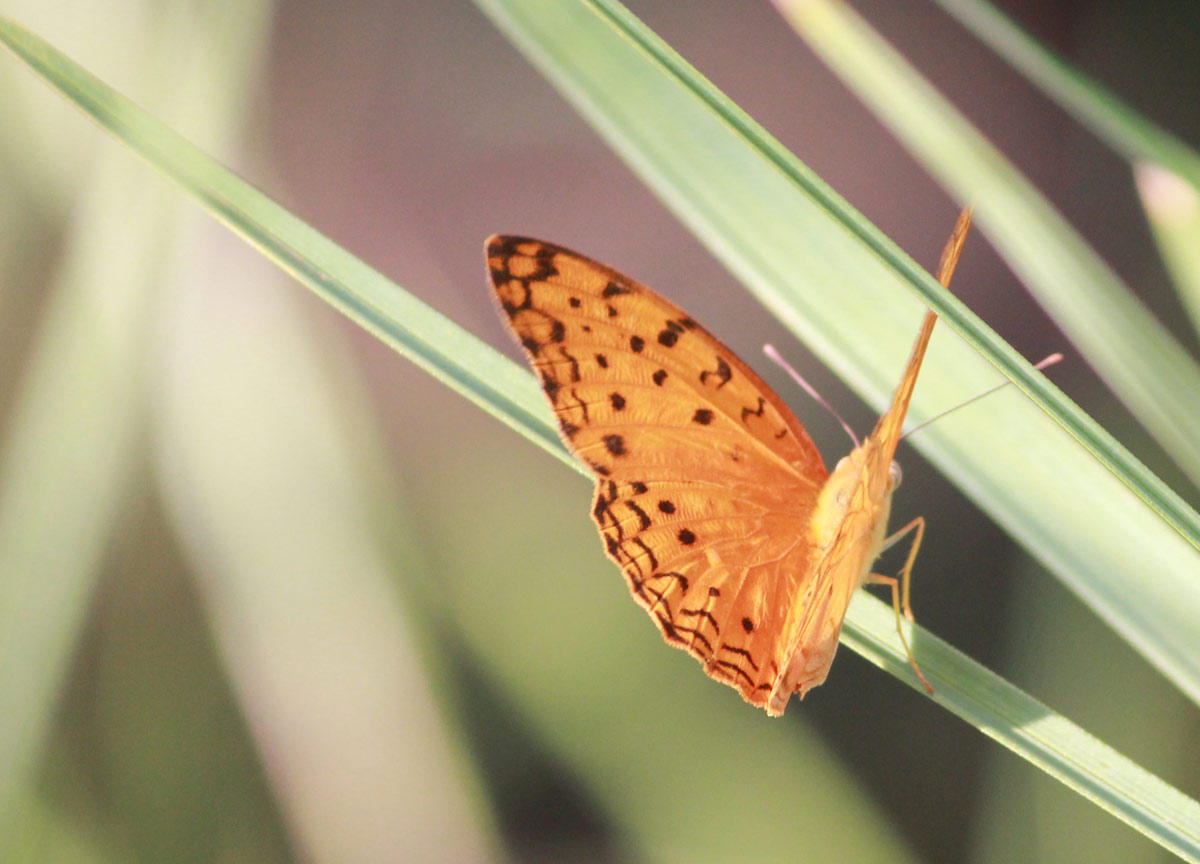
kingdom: Animalia
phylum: Arthropoda
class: Insecta
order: Lepidoptera
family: Nymphalidae
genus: Phalanta
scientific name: Phalanta phalantha
